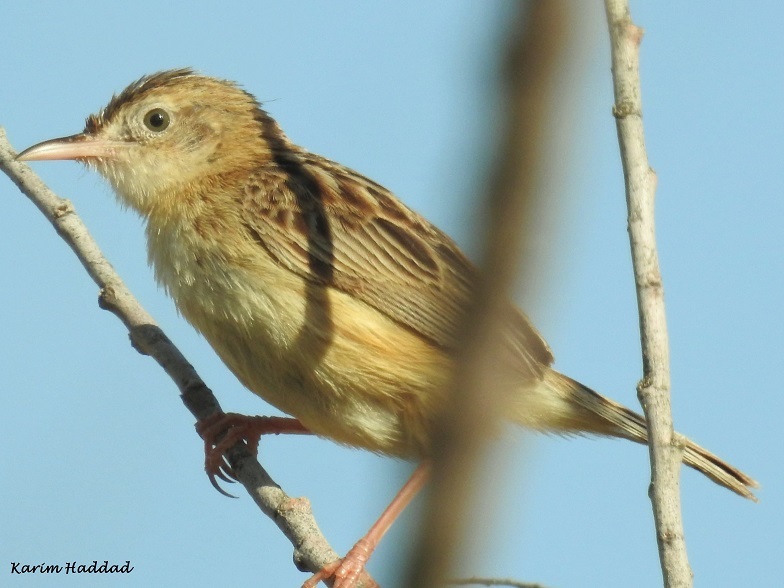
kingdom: Animalia
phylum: Chordata
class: Aves
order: Passeriformes
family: Cisticolidae
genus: Cisticola
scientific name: Cisticola juncidis
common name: Zitting cisticola
